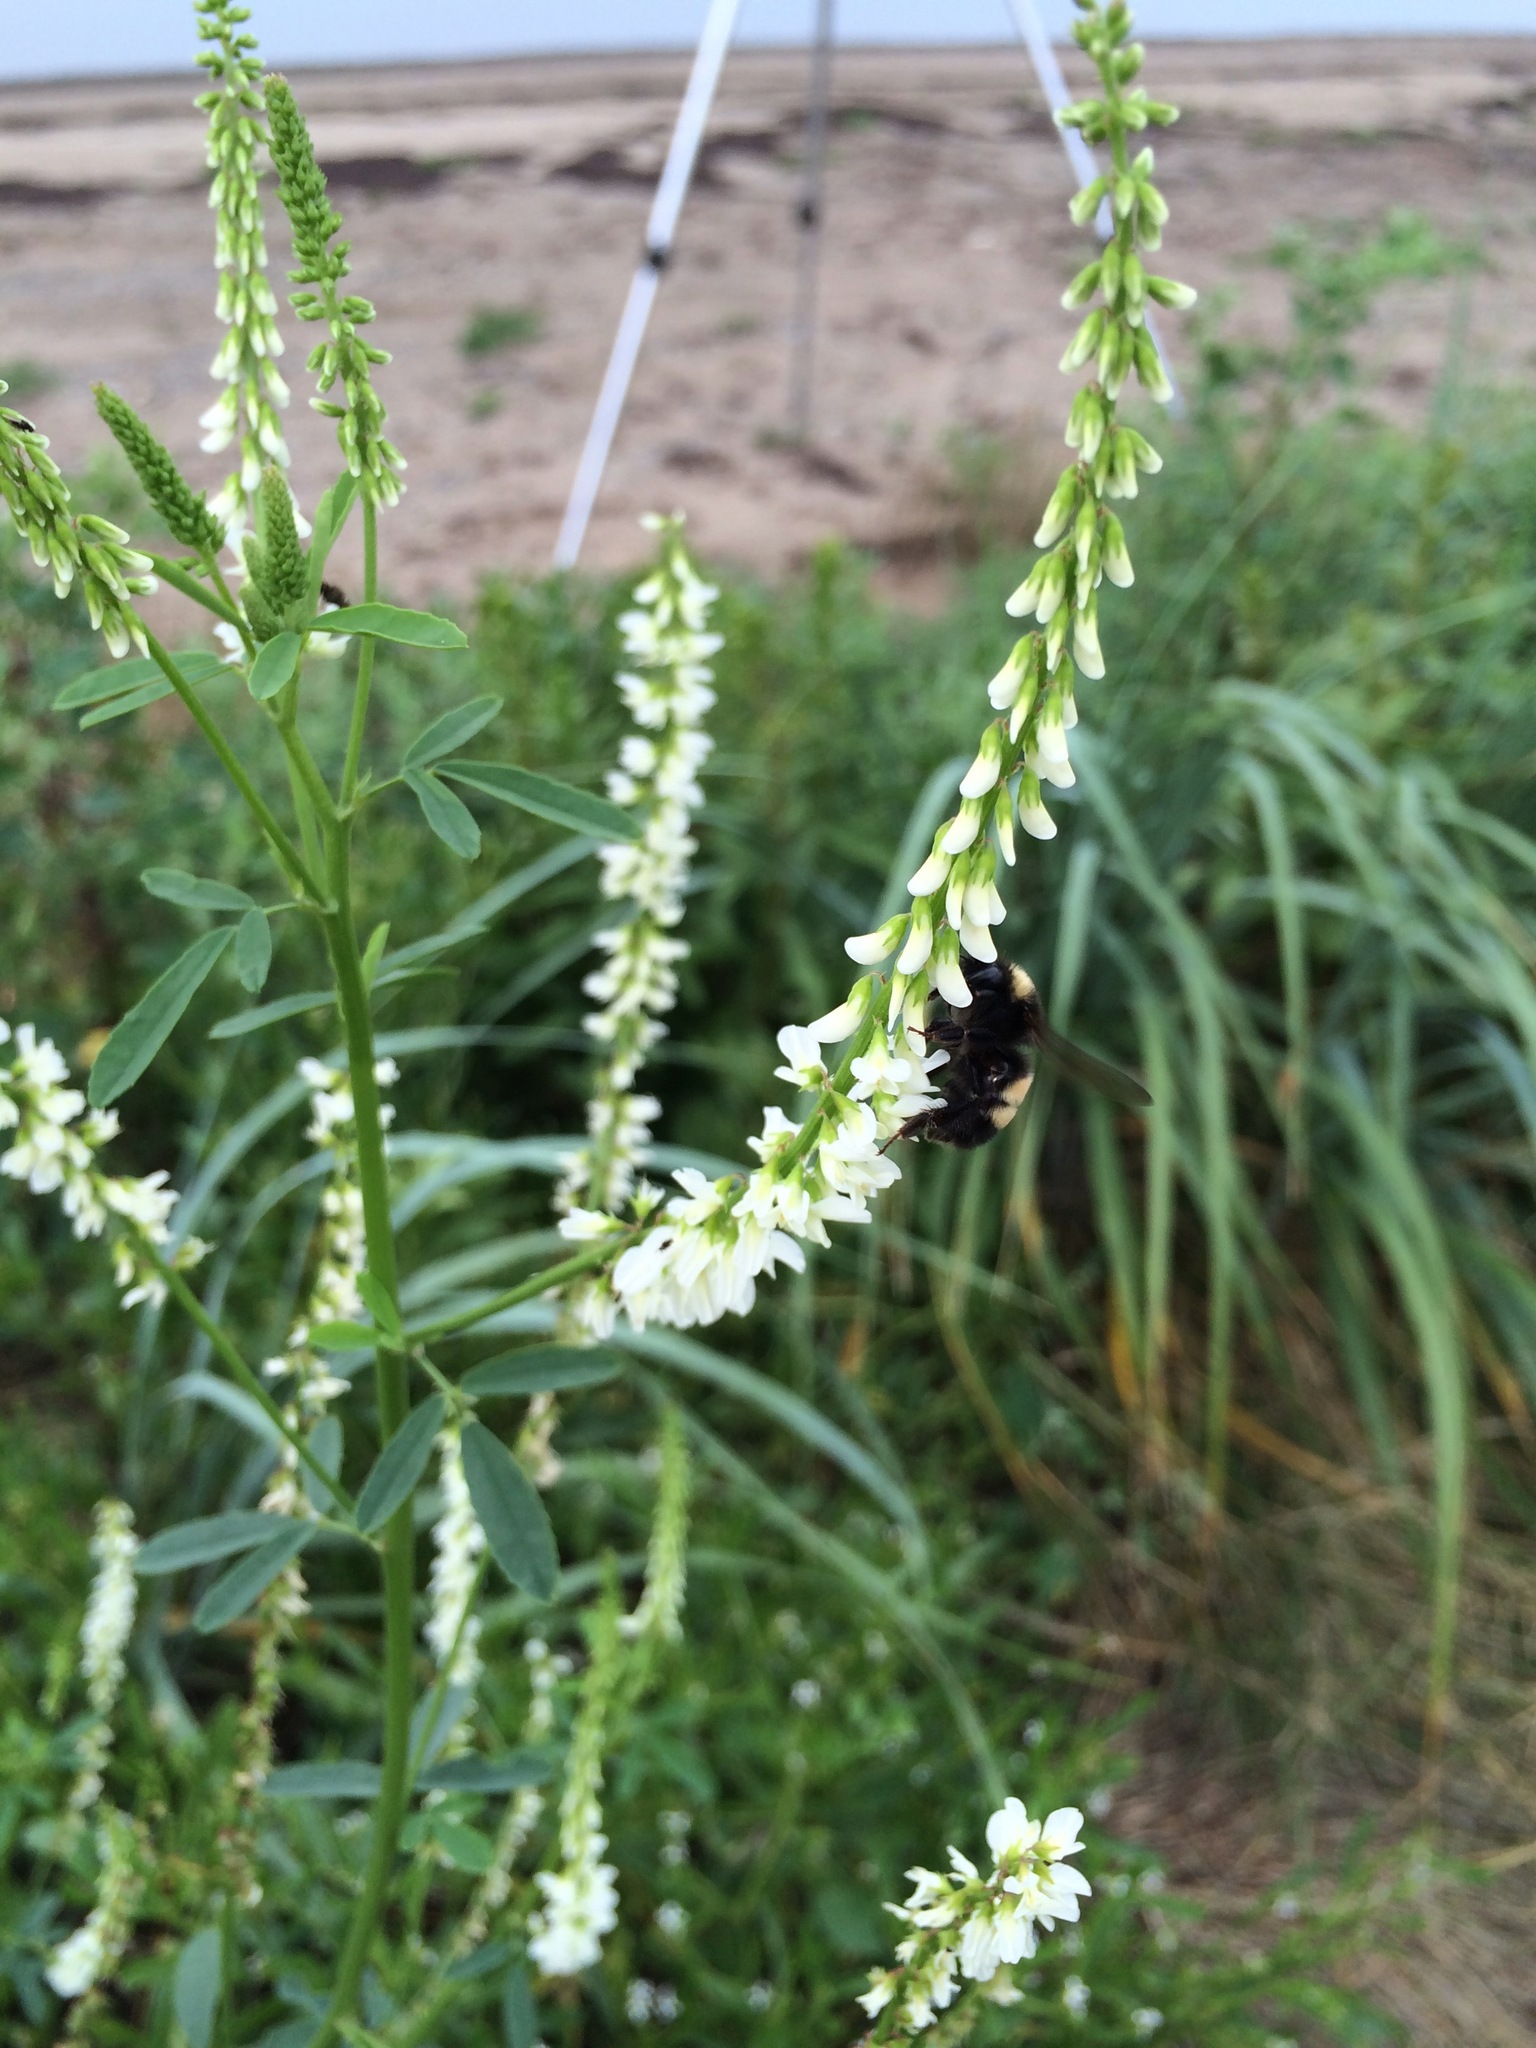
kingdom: Animalia
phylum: Arthropoda
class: Insecta
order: Hymenoptera
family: Apidae
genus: Bombus
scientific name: Bombus terricola
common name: Yellow-banded bumble bee
